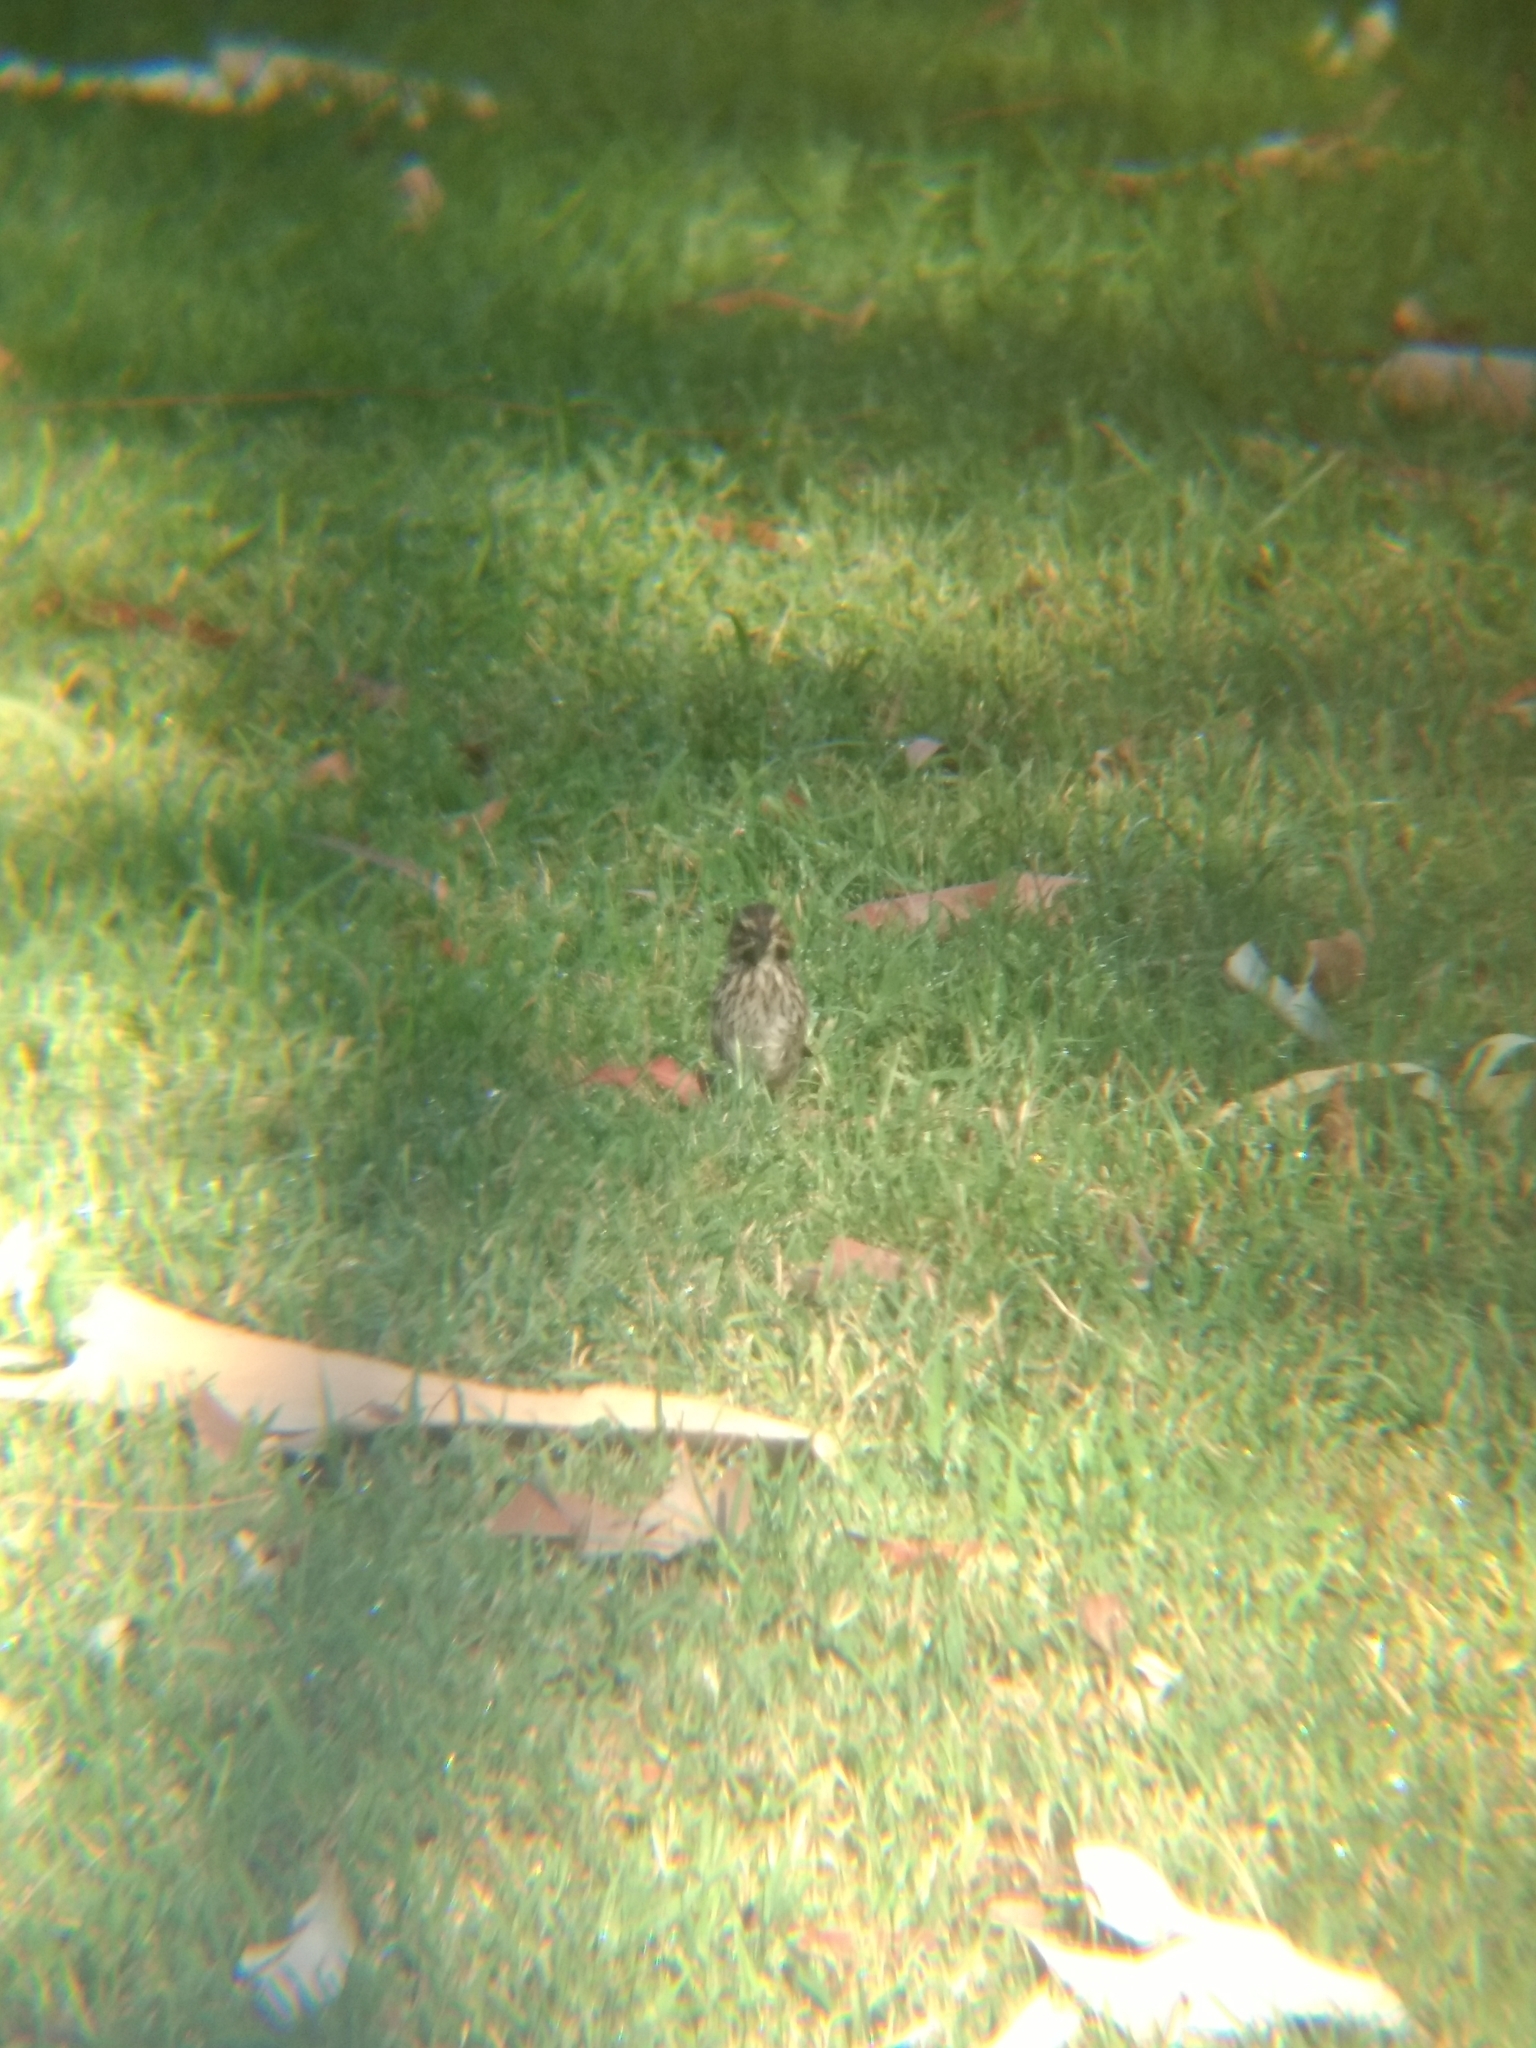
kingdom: Animalia
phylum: Chordata
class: Aves
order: Passeriformes
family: Passerellidae
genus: Melospiza
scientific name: Melospiza melodia
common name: Song sparrow
